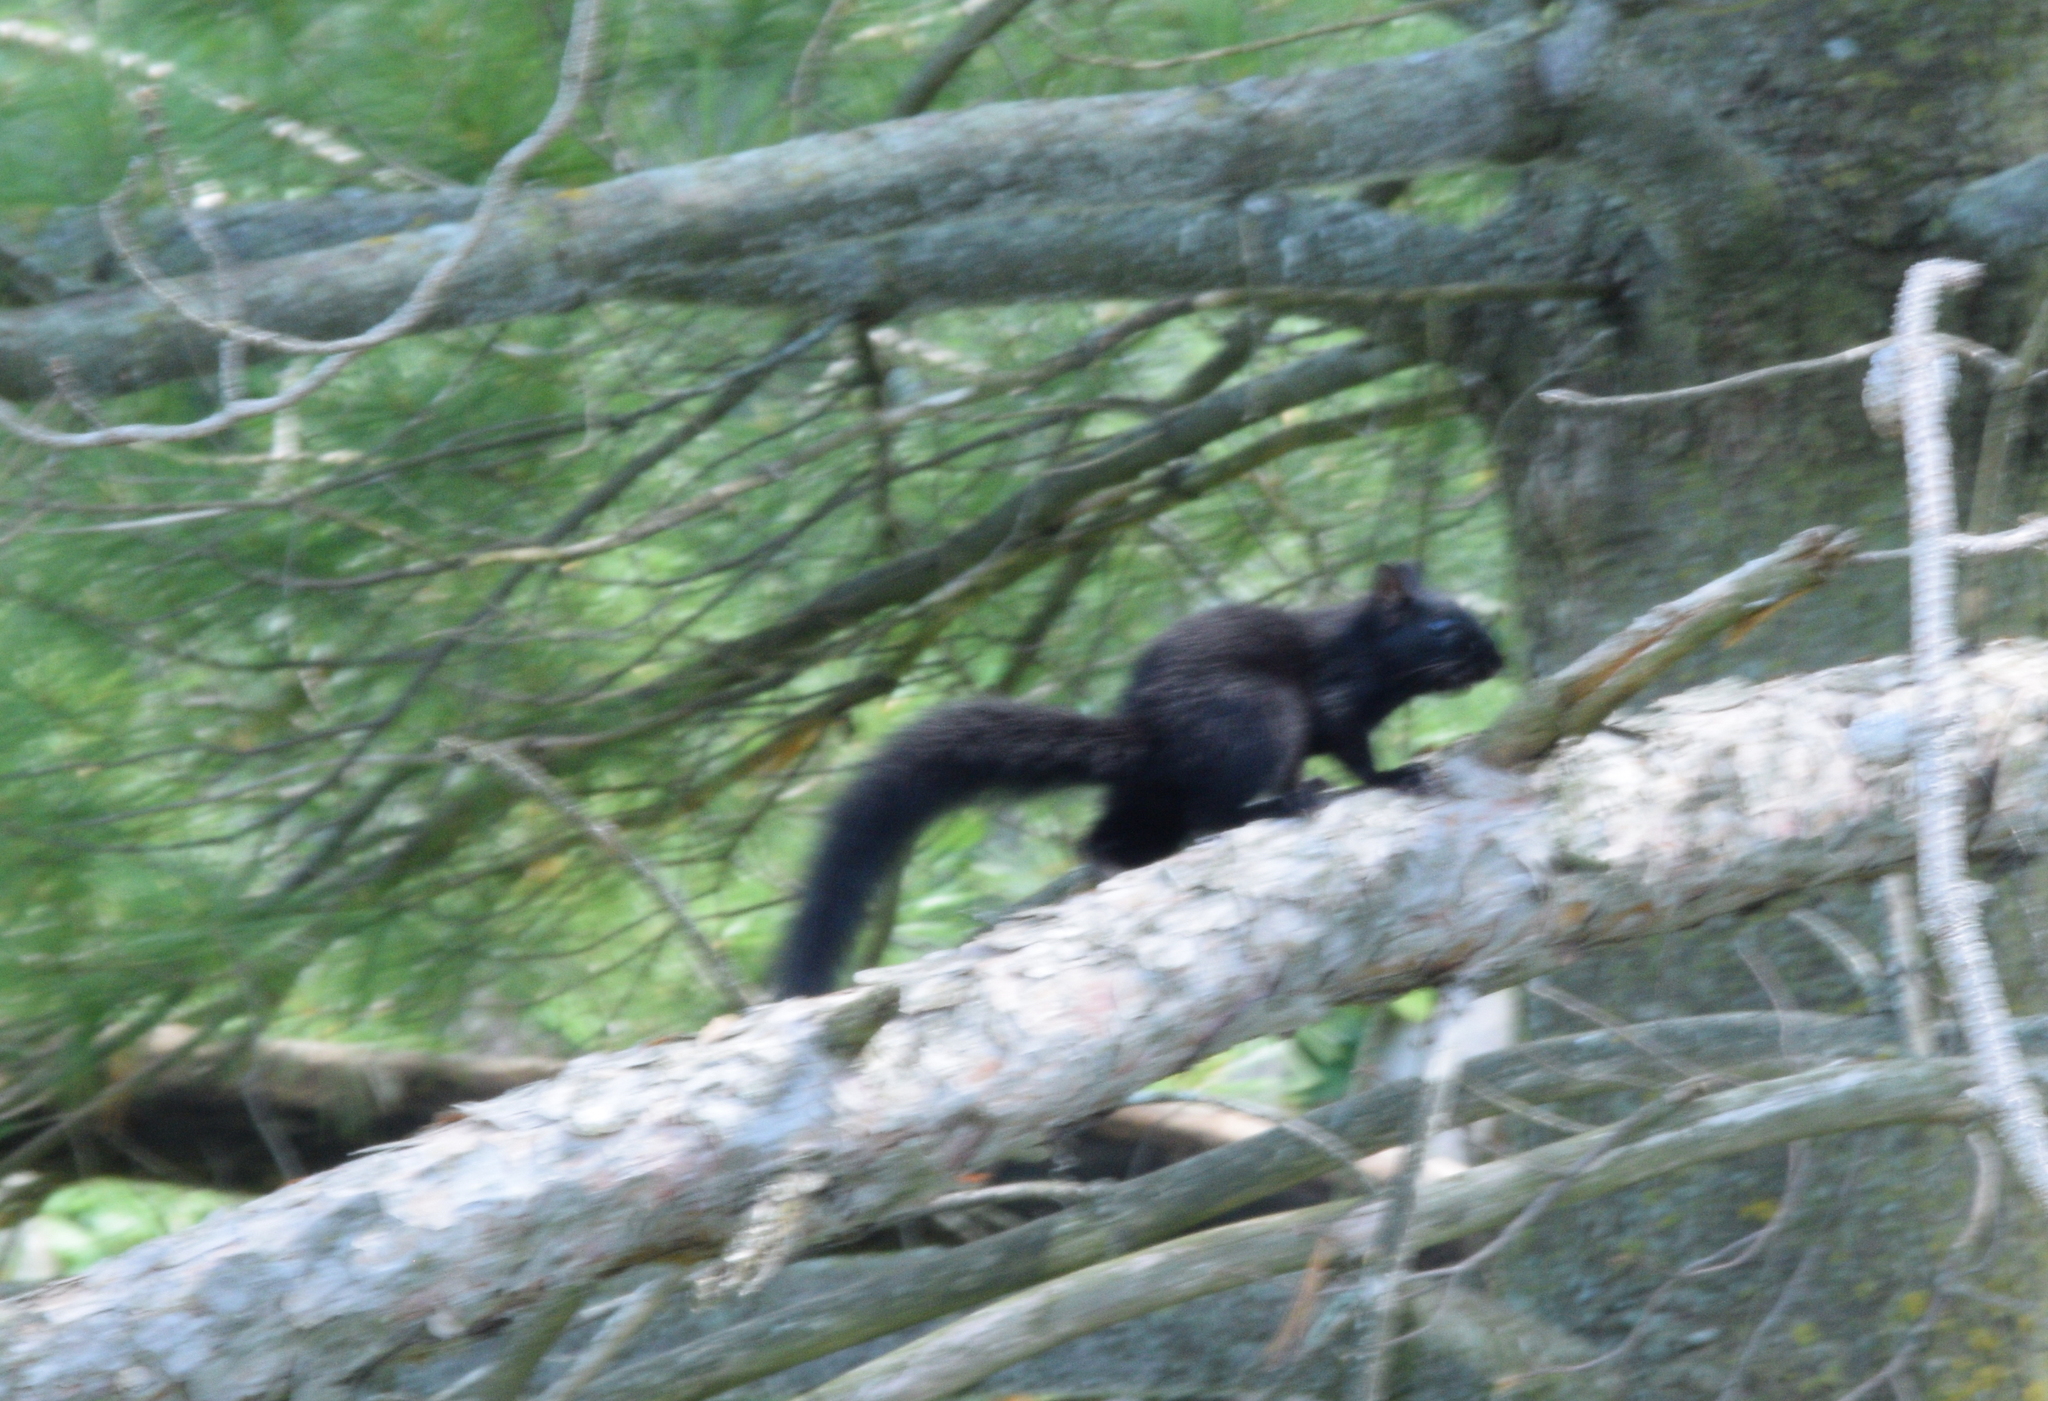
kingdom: Animalia
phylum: Chordata
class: Mammalia
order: Rodentia
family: Sciuridae
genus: Sciurus
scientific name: Sciurus carolinensis
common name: Eastern gray squirrel
